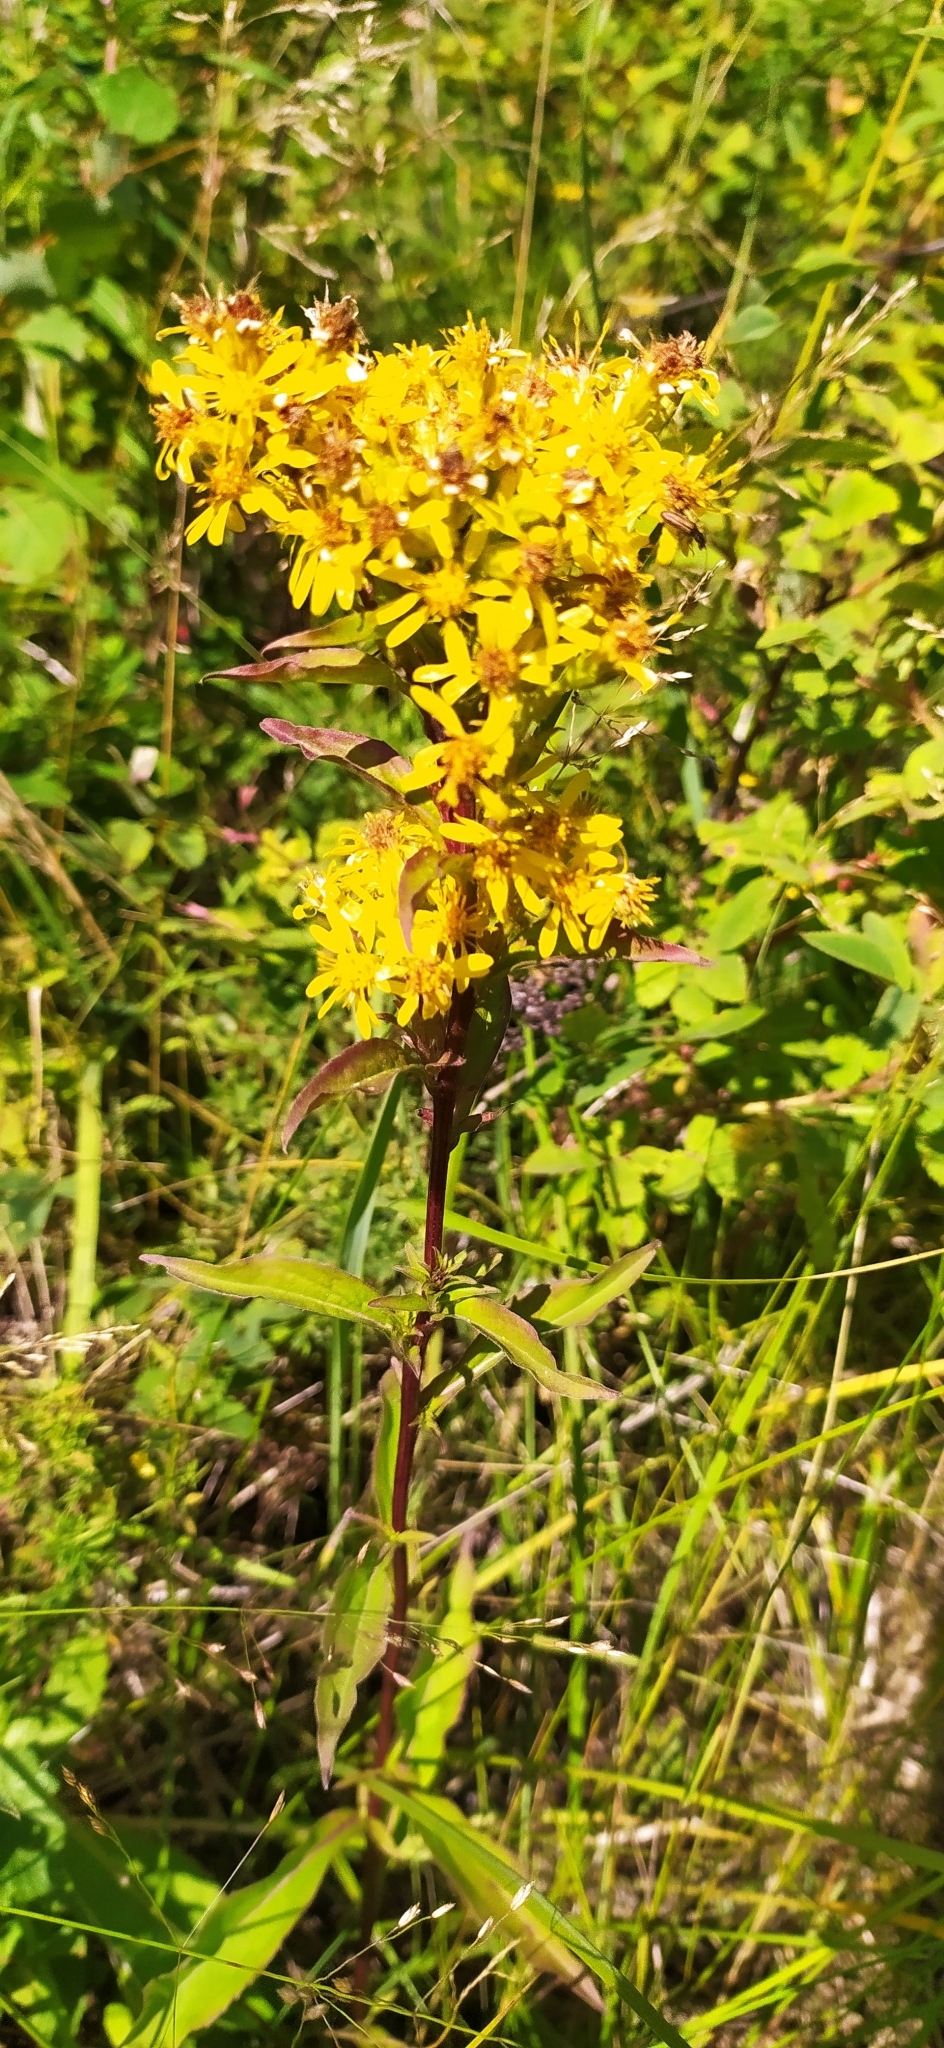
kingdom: Plantae
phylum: Tracheophyta
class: Magnoliopsida
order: Asterales
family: Asteraceae
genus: Solidago
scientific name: Solidago virgaurea
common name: Goldenrod
